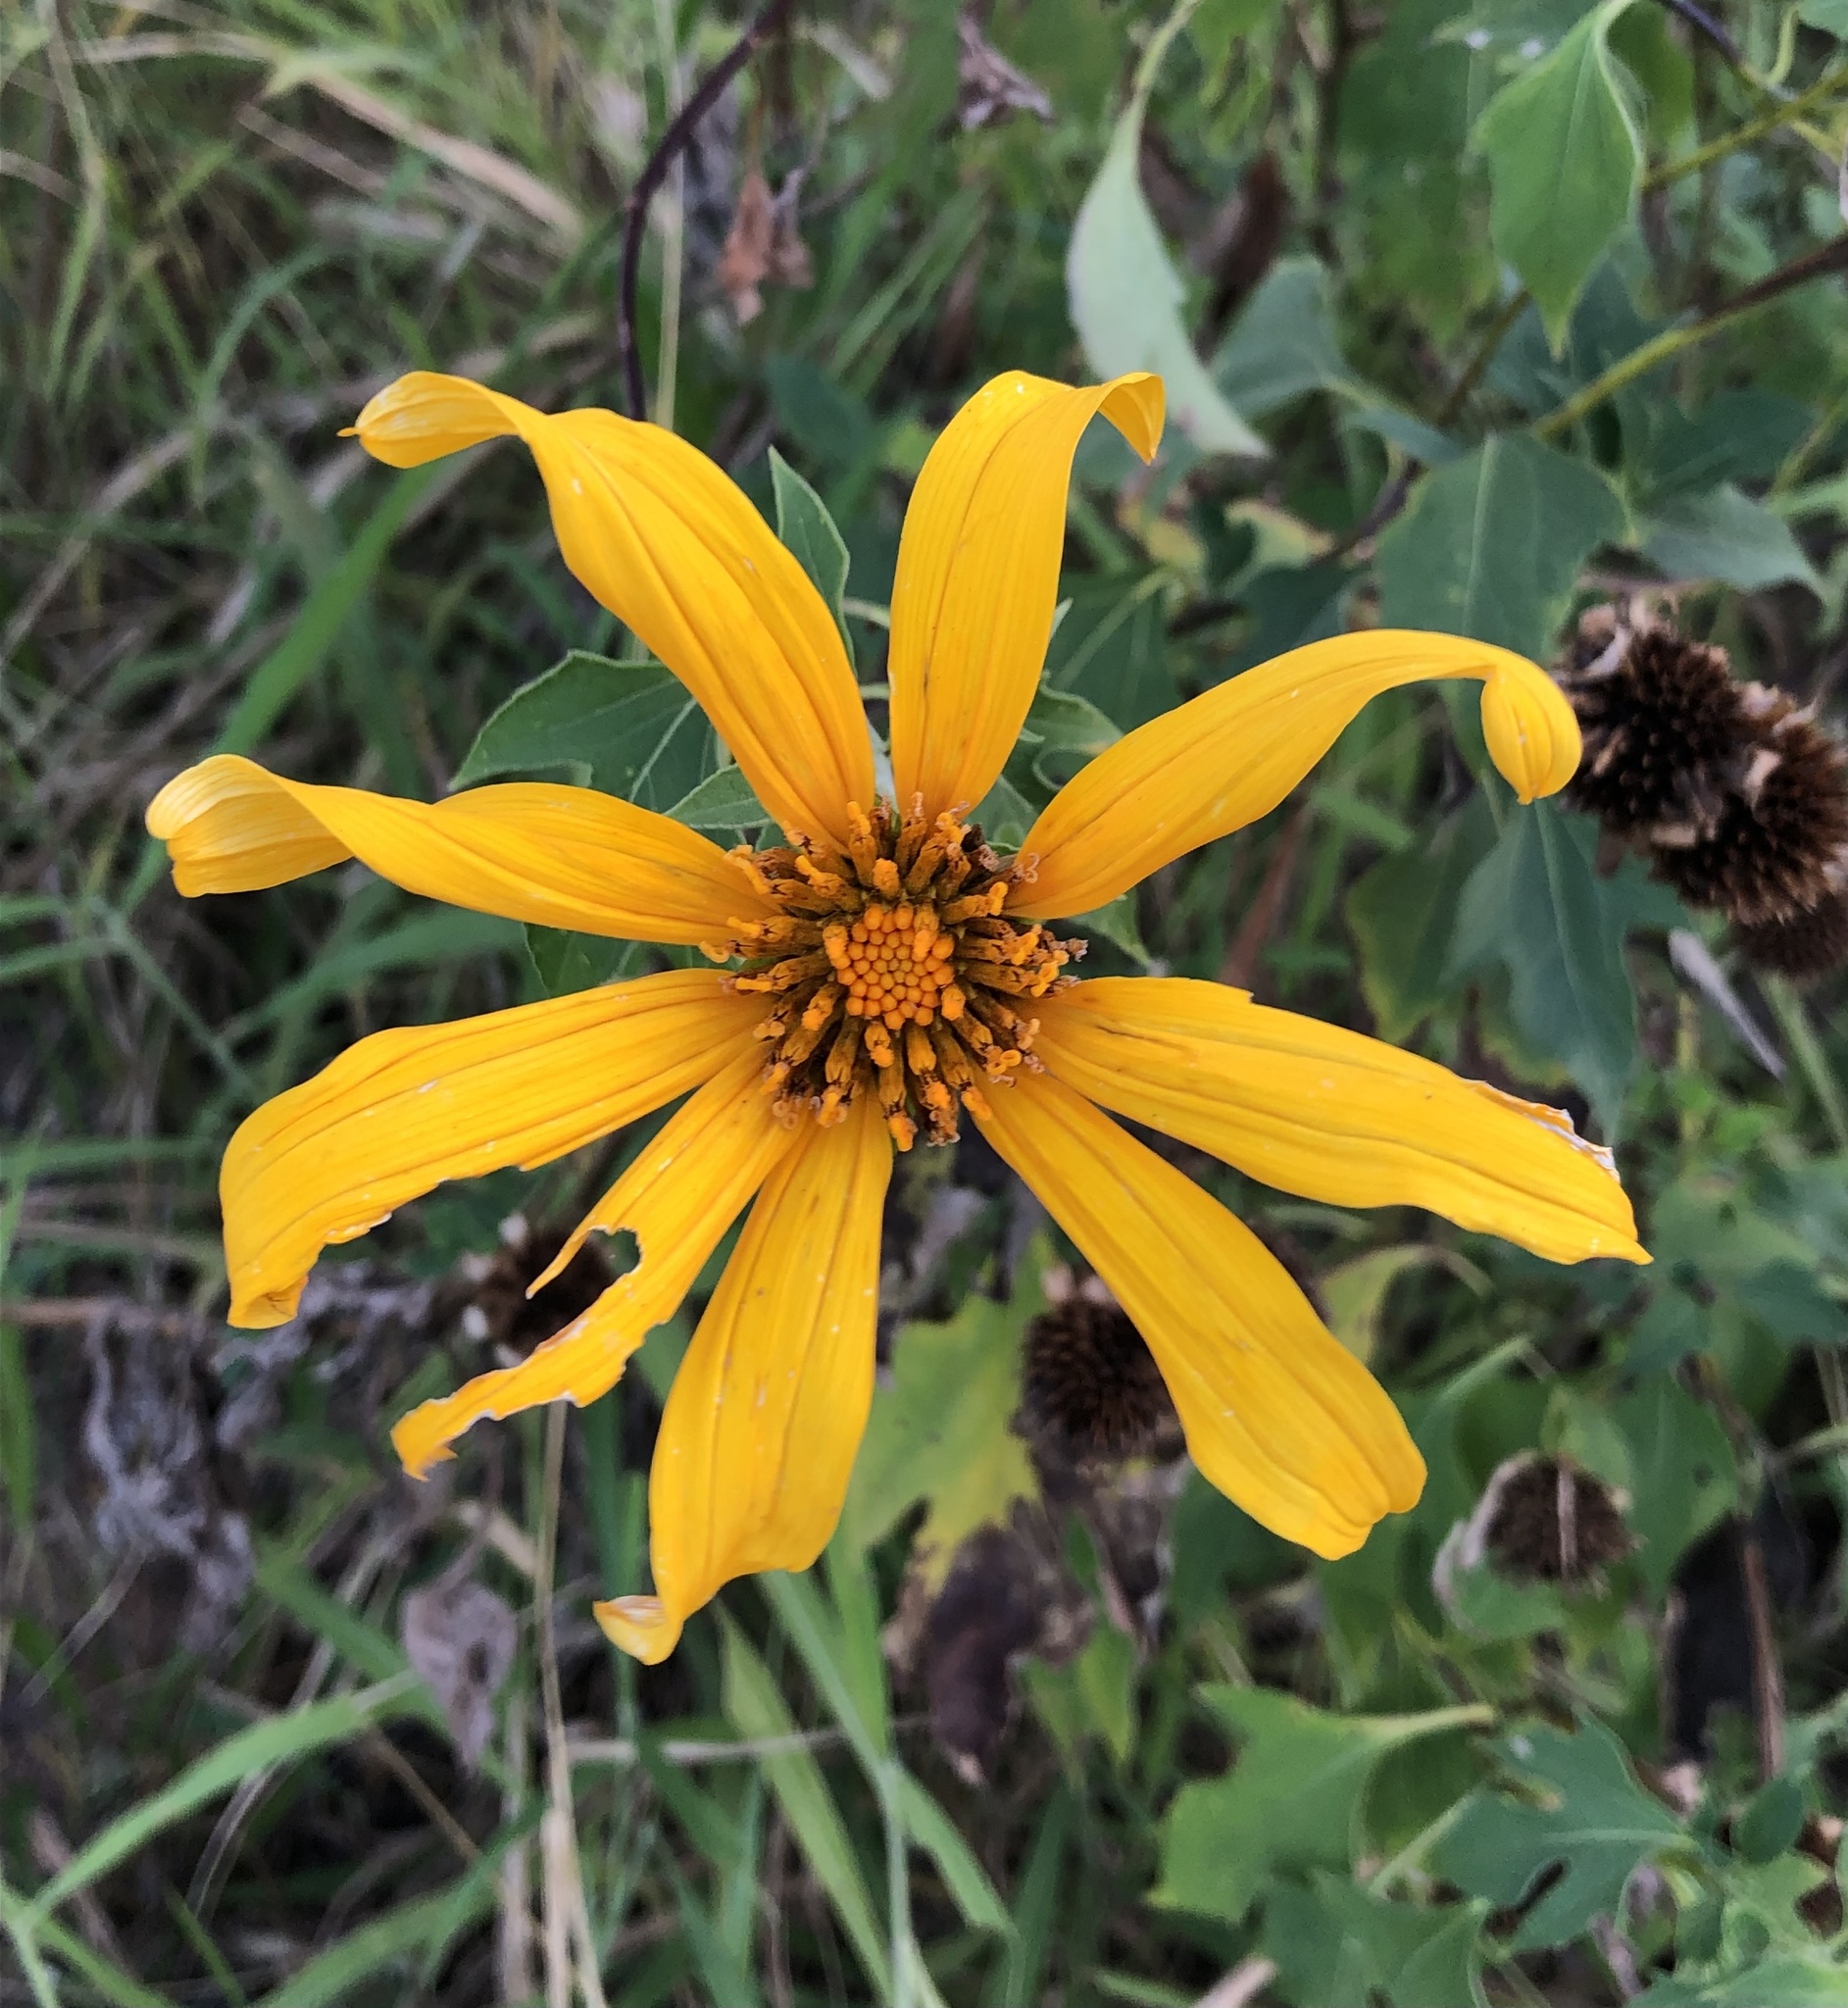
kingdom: Plantae
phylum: Tracheophyta
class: Magnoliopsida
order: Asterales
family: Asteraceae
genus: Tithonia
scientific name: Tithonia diversifolia
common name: Tree marigold
